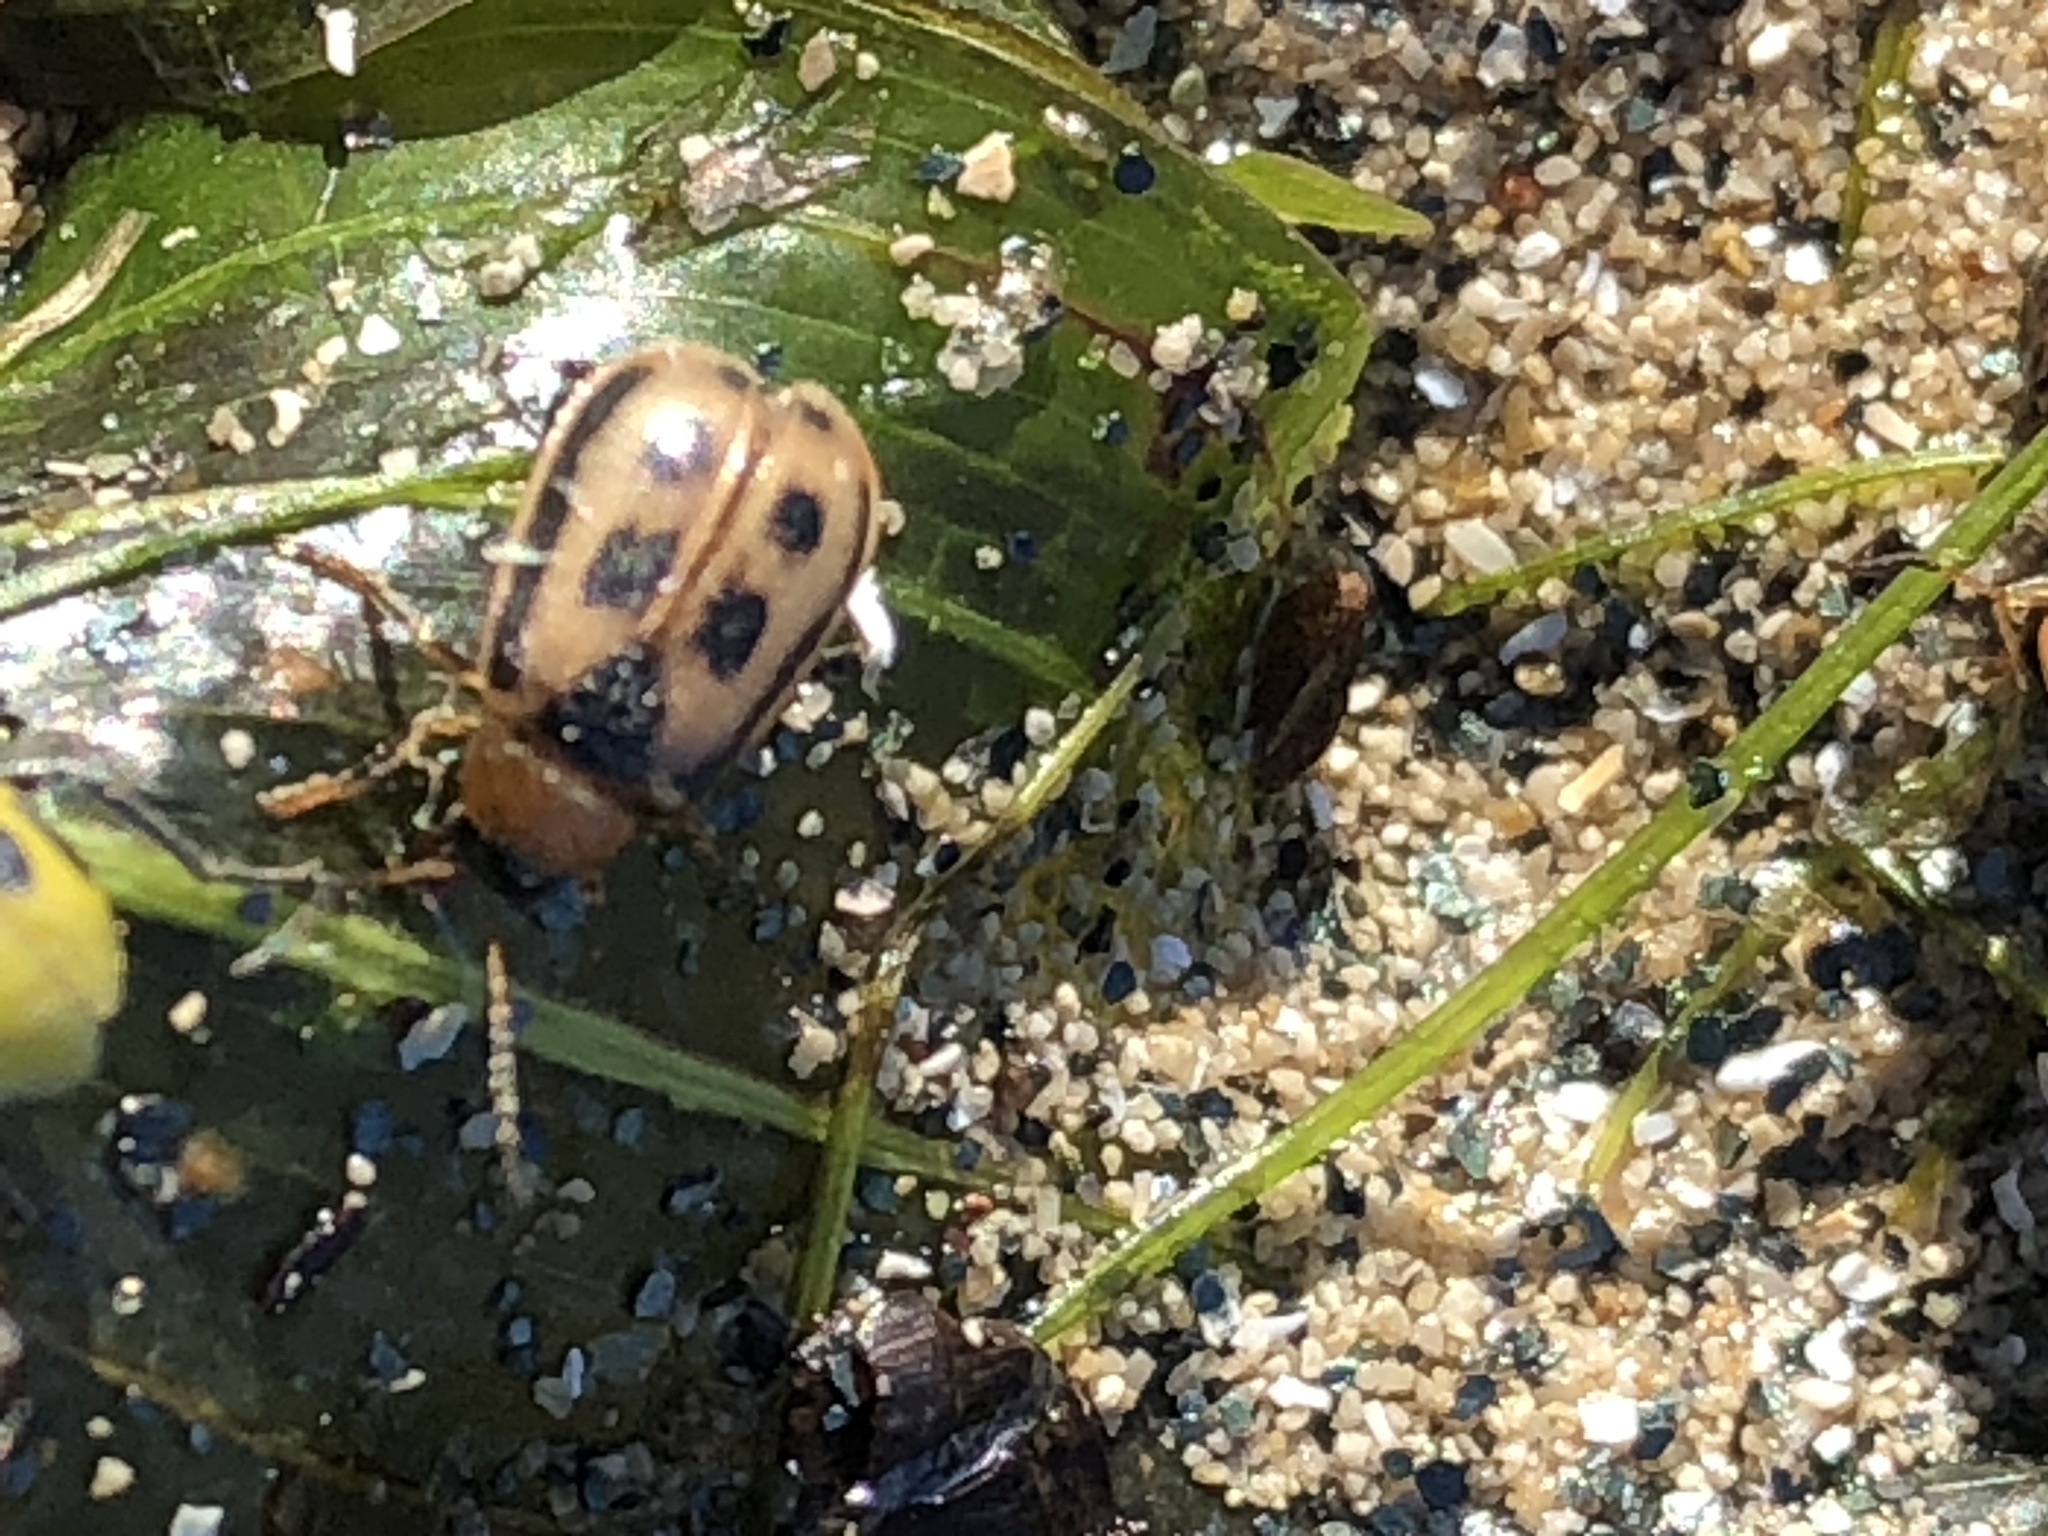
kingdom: Animalia
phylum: Arthropoda
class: Insecta
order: Coleoptera
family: Chrysomelidae
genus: Cerotoma
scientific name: Cerotoma trifurcata
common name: Bean leaf beetle
